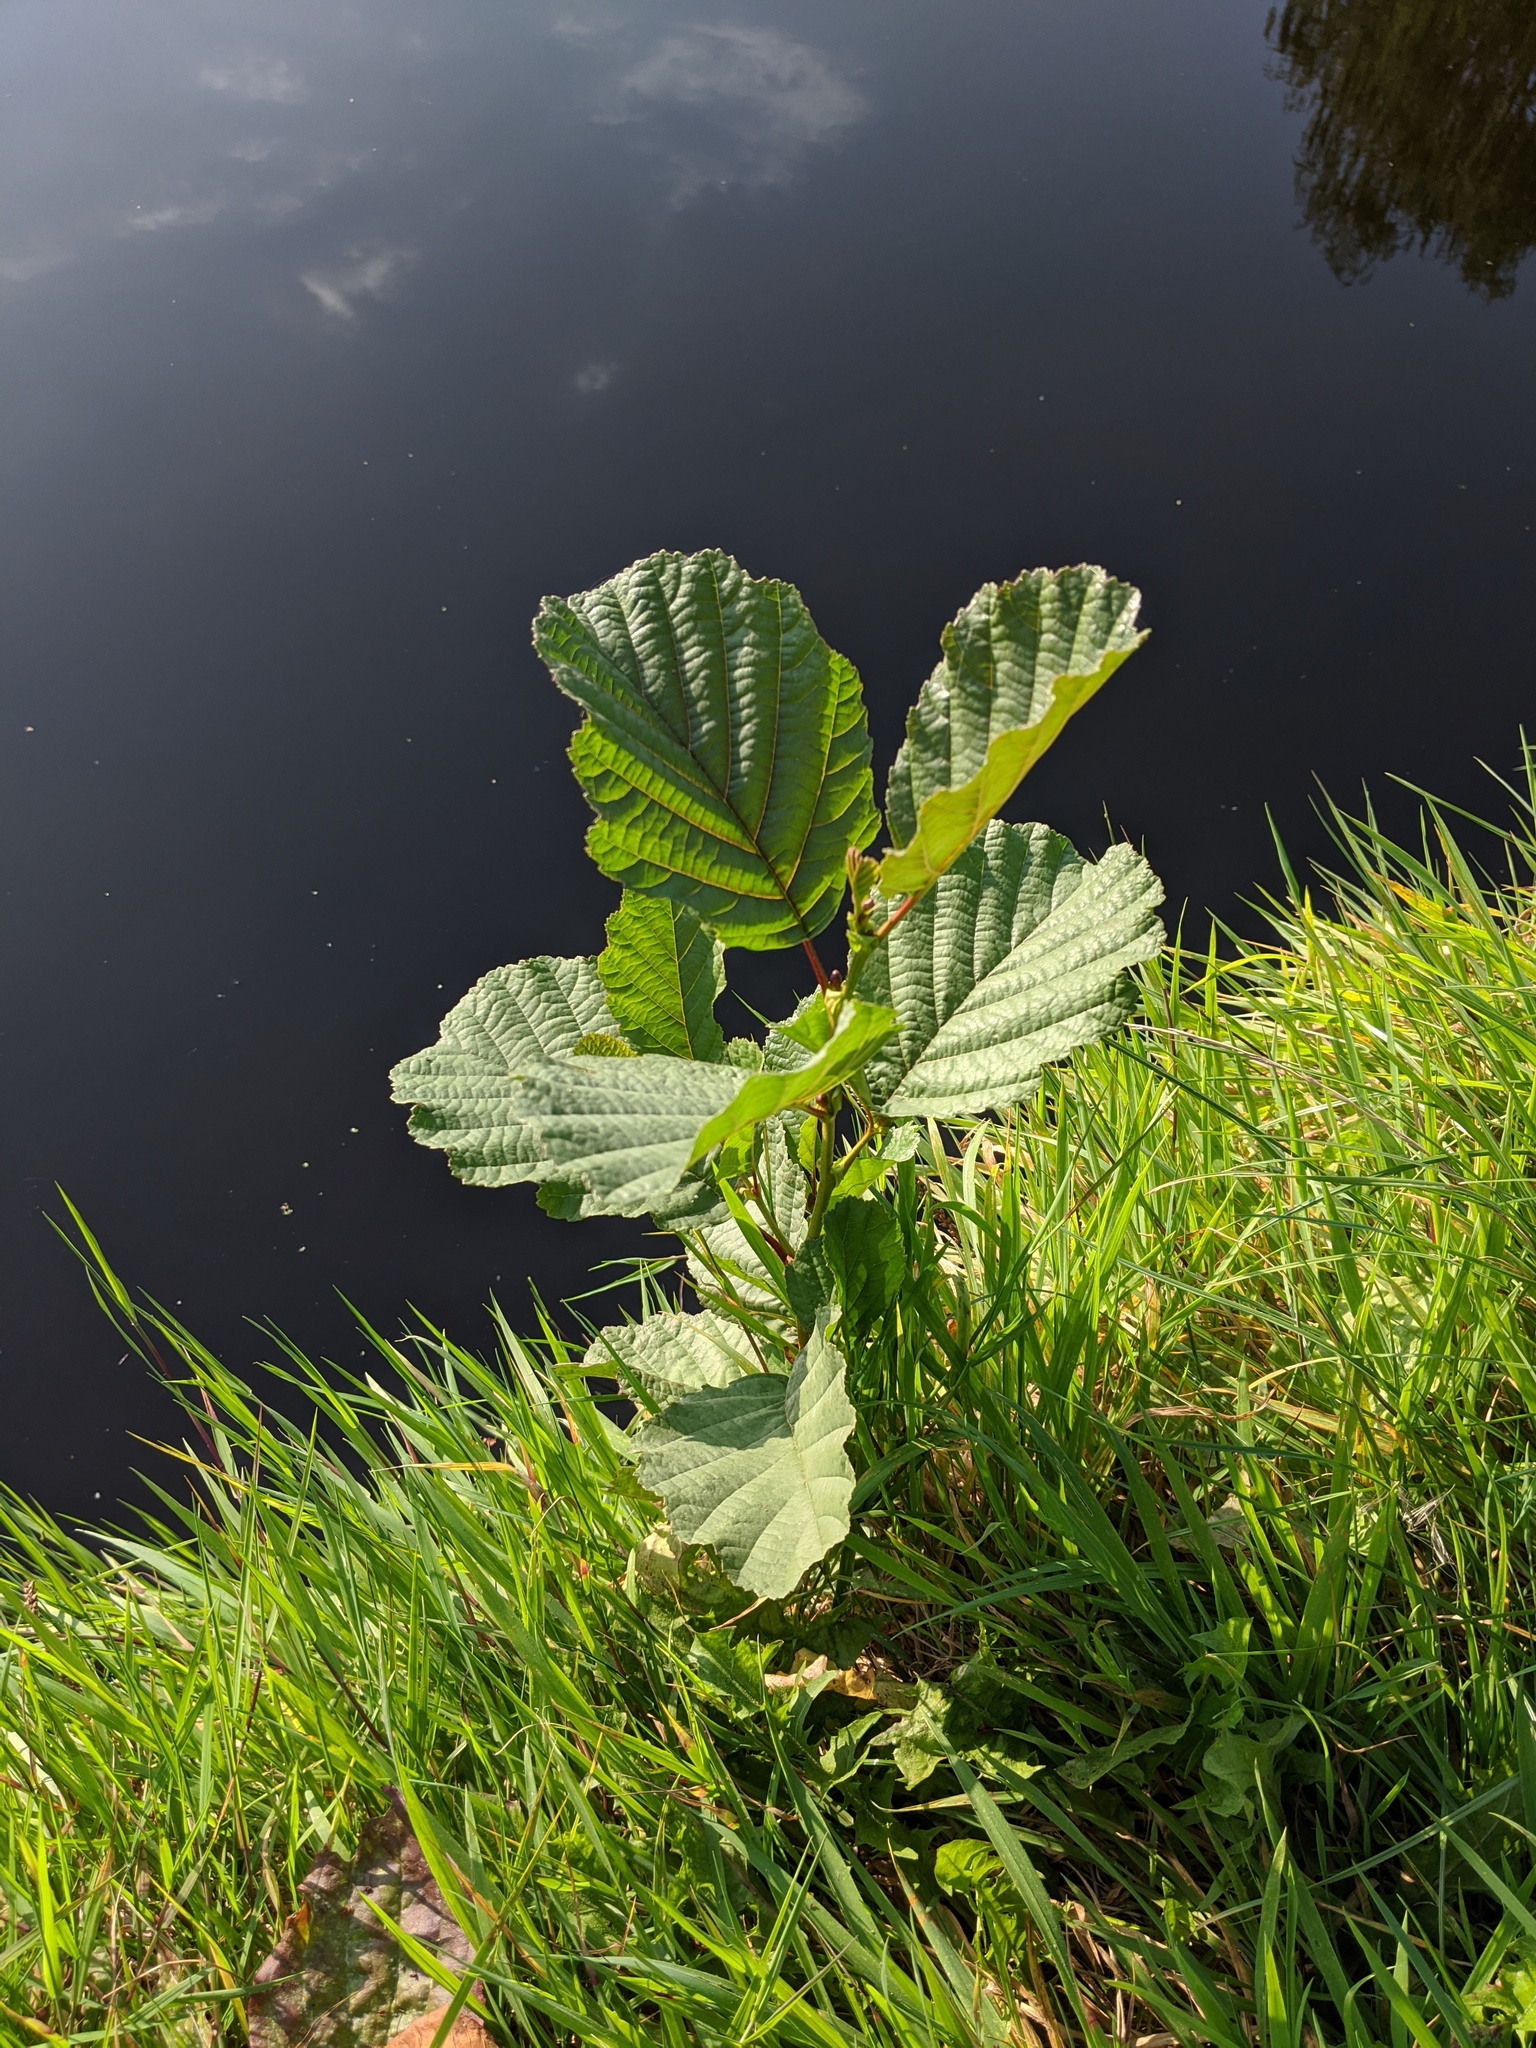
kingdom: Plantae
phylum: Tracheophyta
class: Magnoliopsida
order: Fagales
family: Betulaceae
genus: Alnus
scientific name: Alnus glutinosa
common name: Black alder
